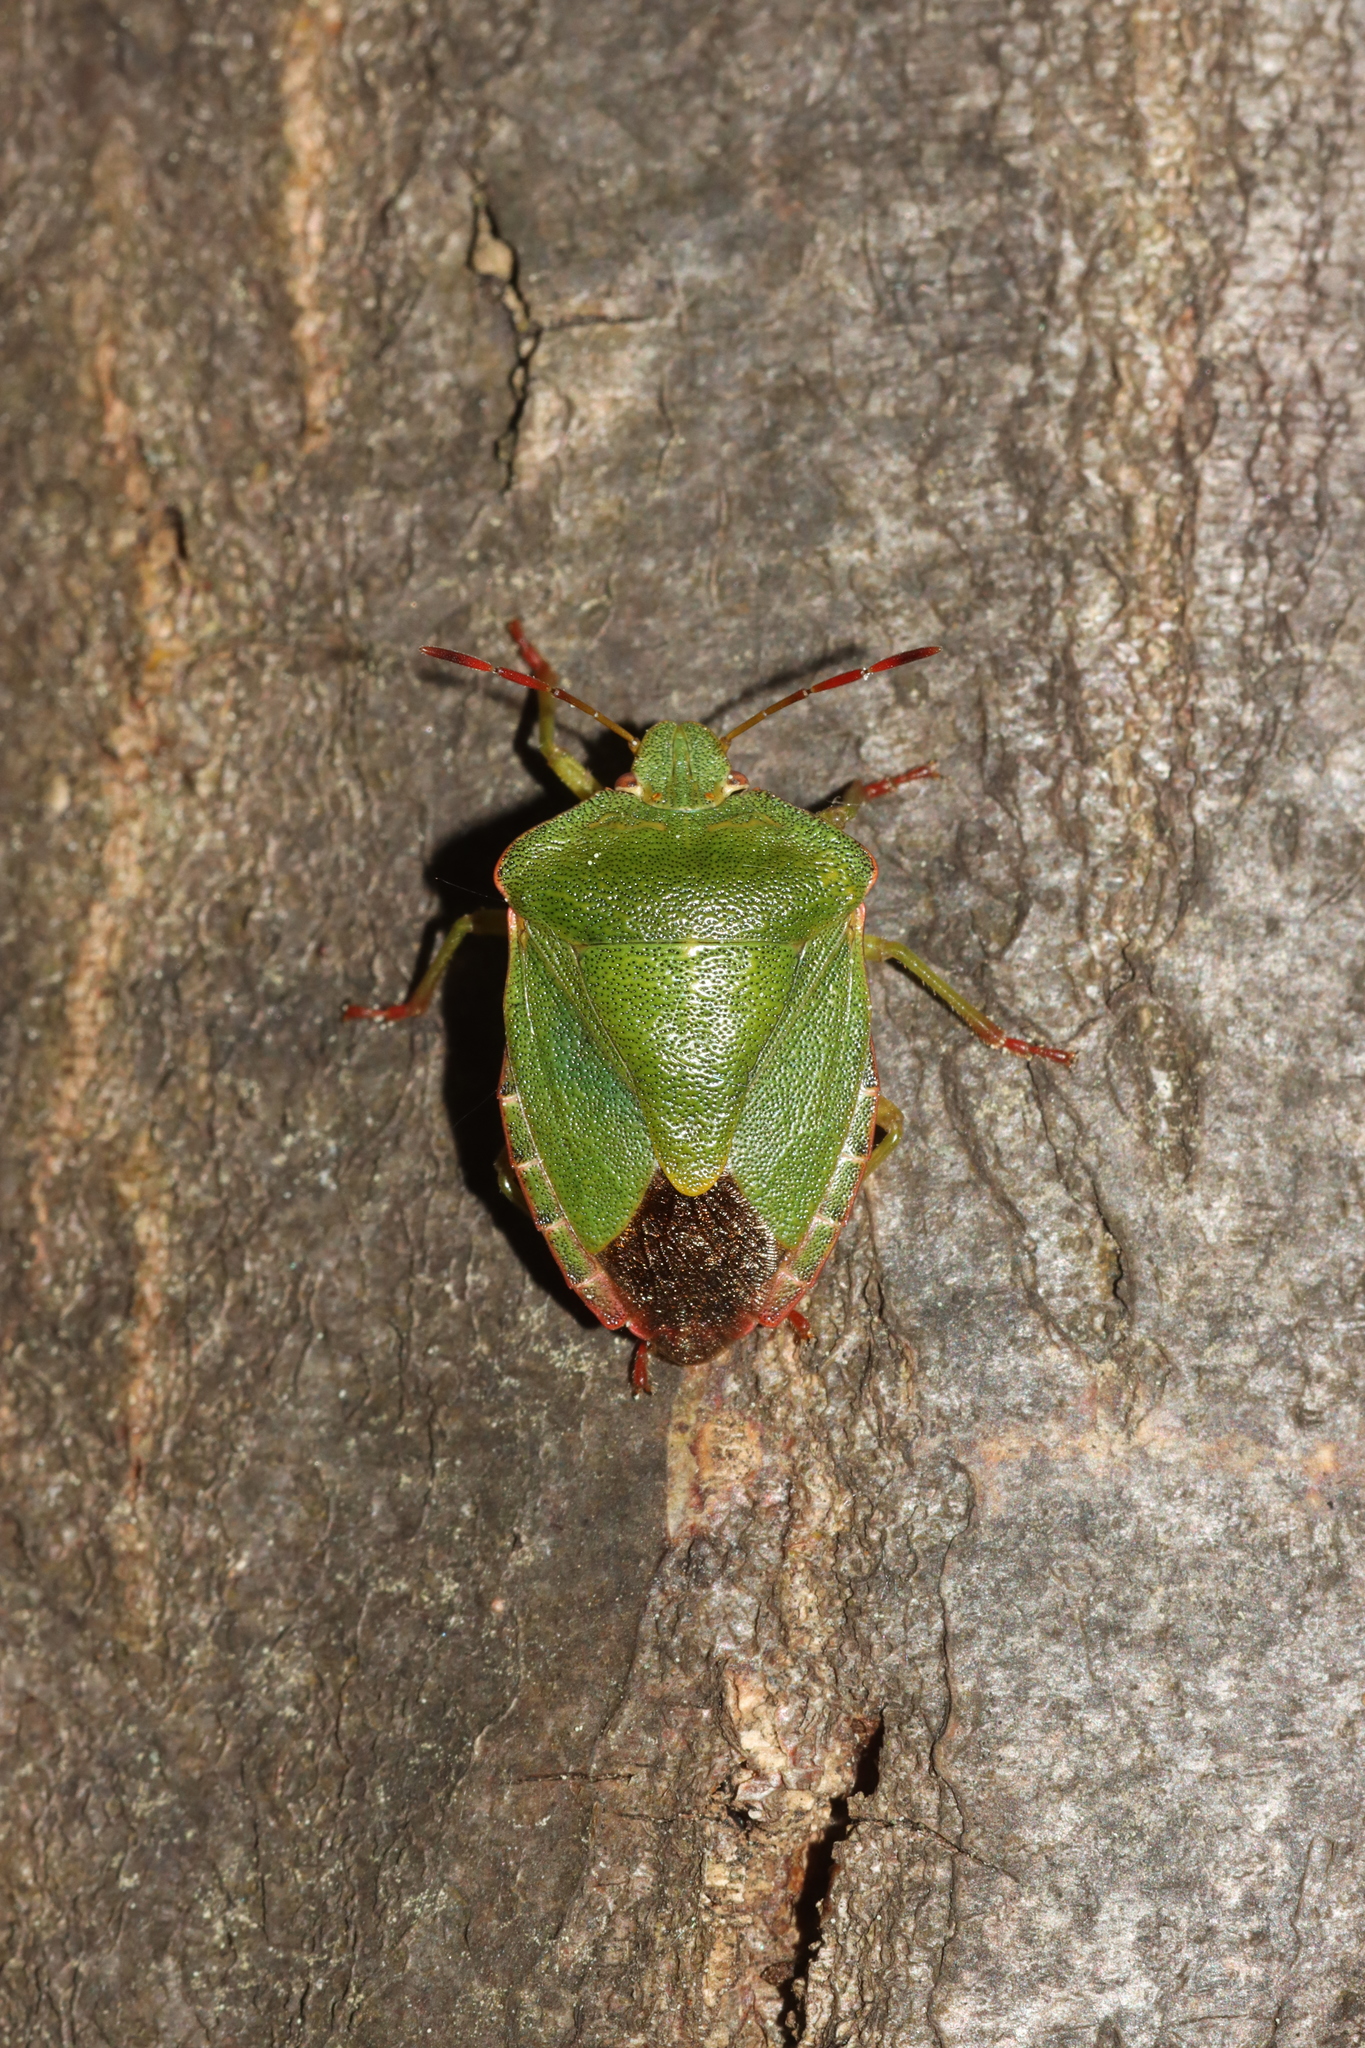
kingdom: Animalia
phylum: Arthropoda
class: Insecta
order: Hemiptera
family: Pentatomidae
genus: Palomena
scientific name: Palomena prasina
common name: Green shieldbug
